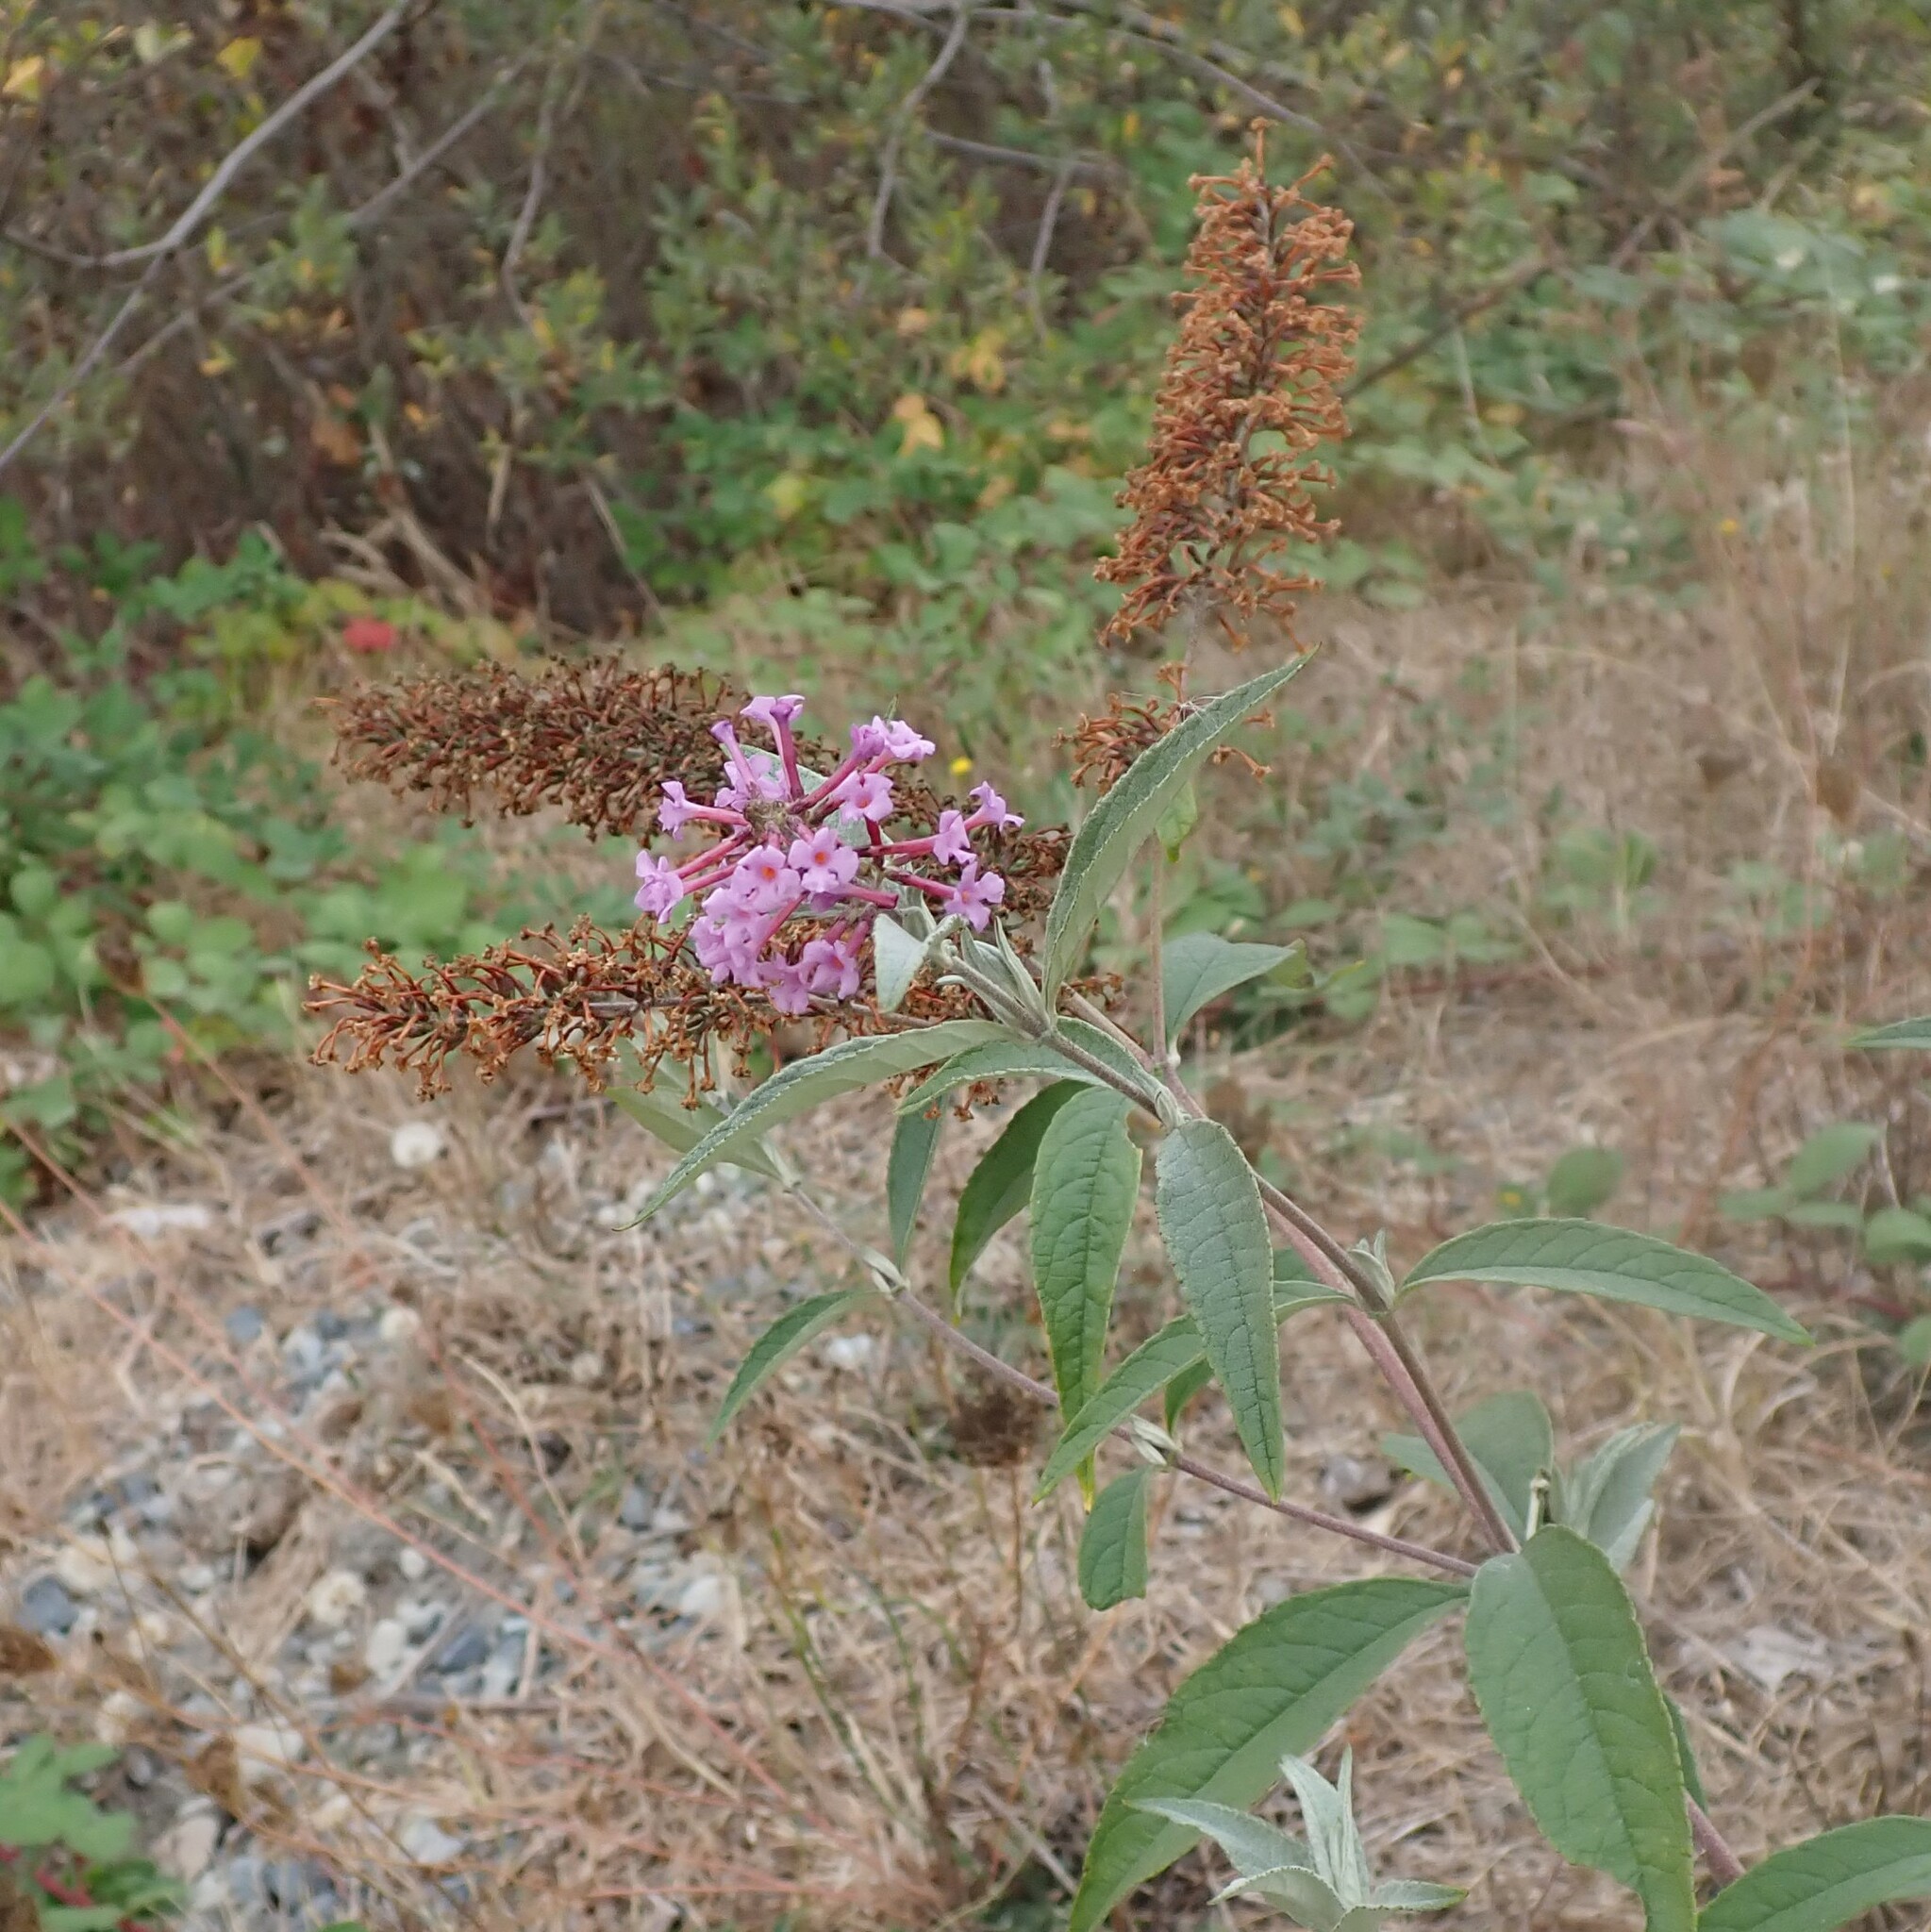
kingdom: Plantae
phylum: Tracheophyta
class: Magnoliopsida
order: Lamiales
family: Scrophulariaceae
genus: Buddleja
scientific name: Buddleja davidii
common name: Butterfly-bush
